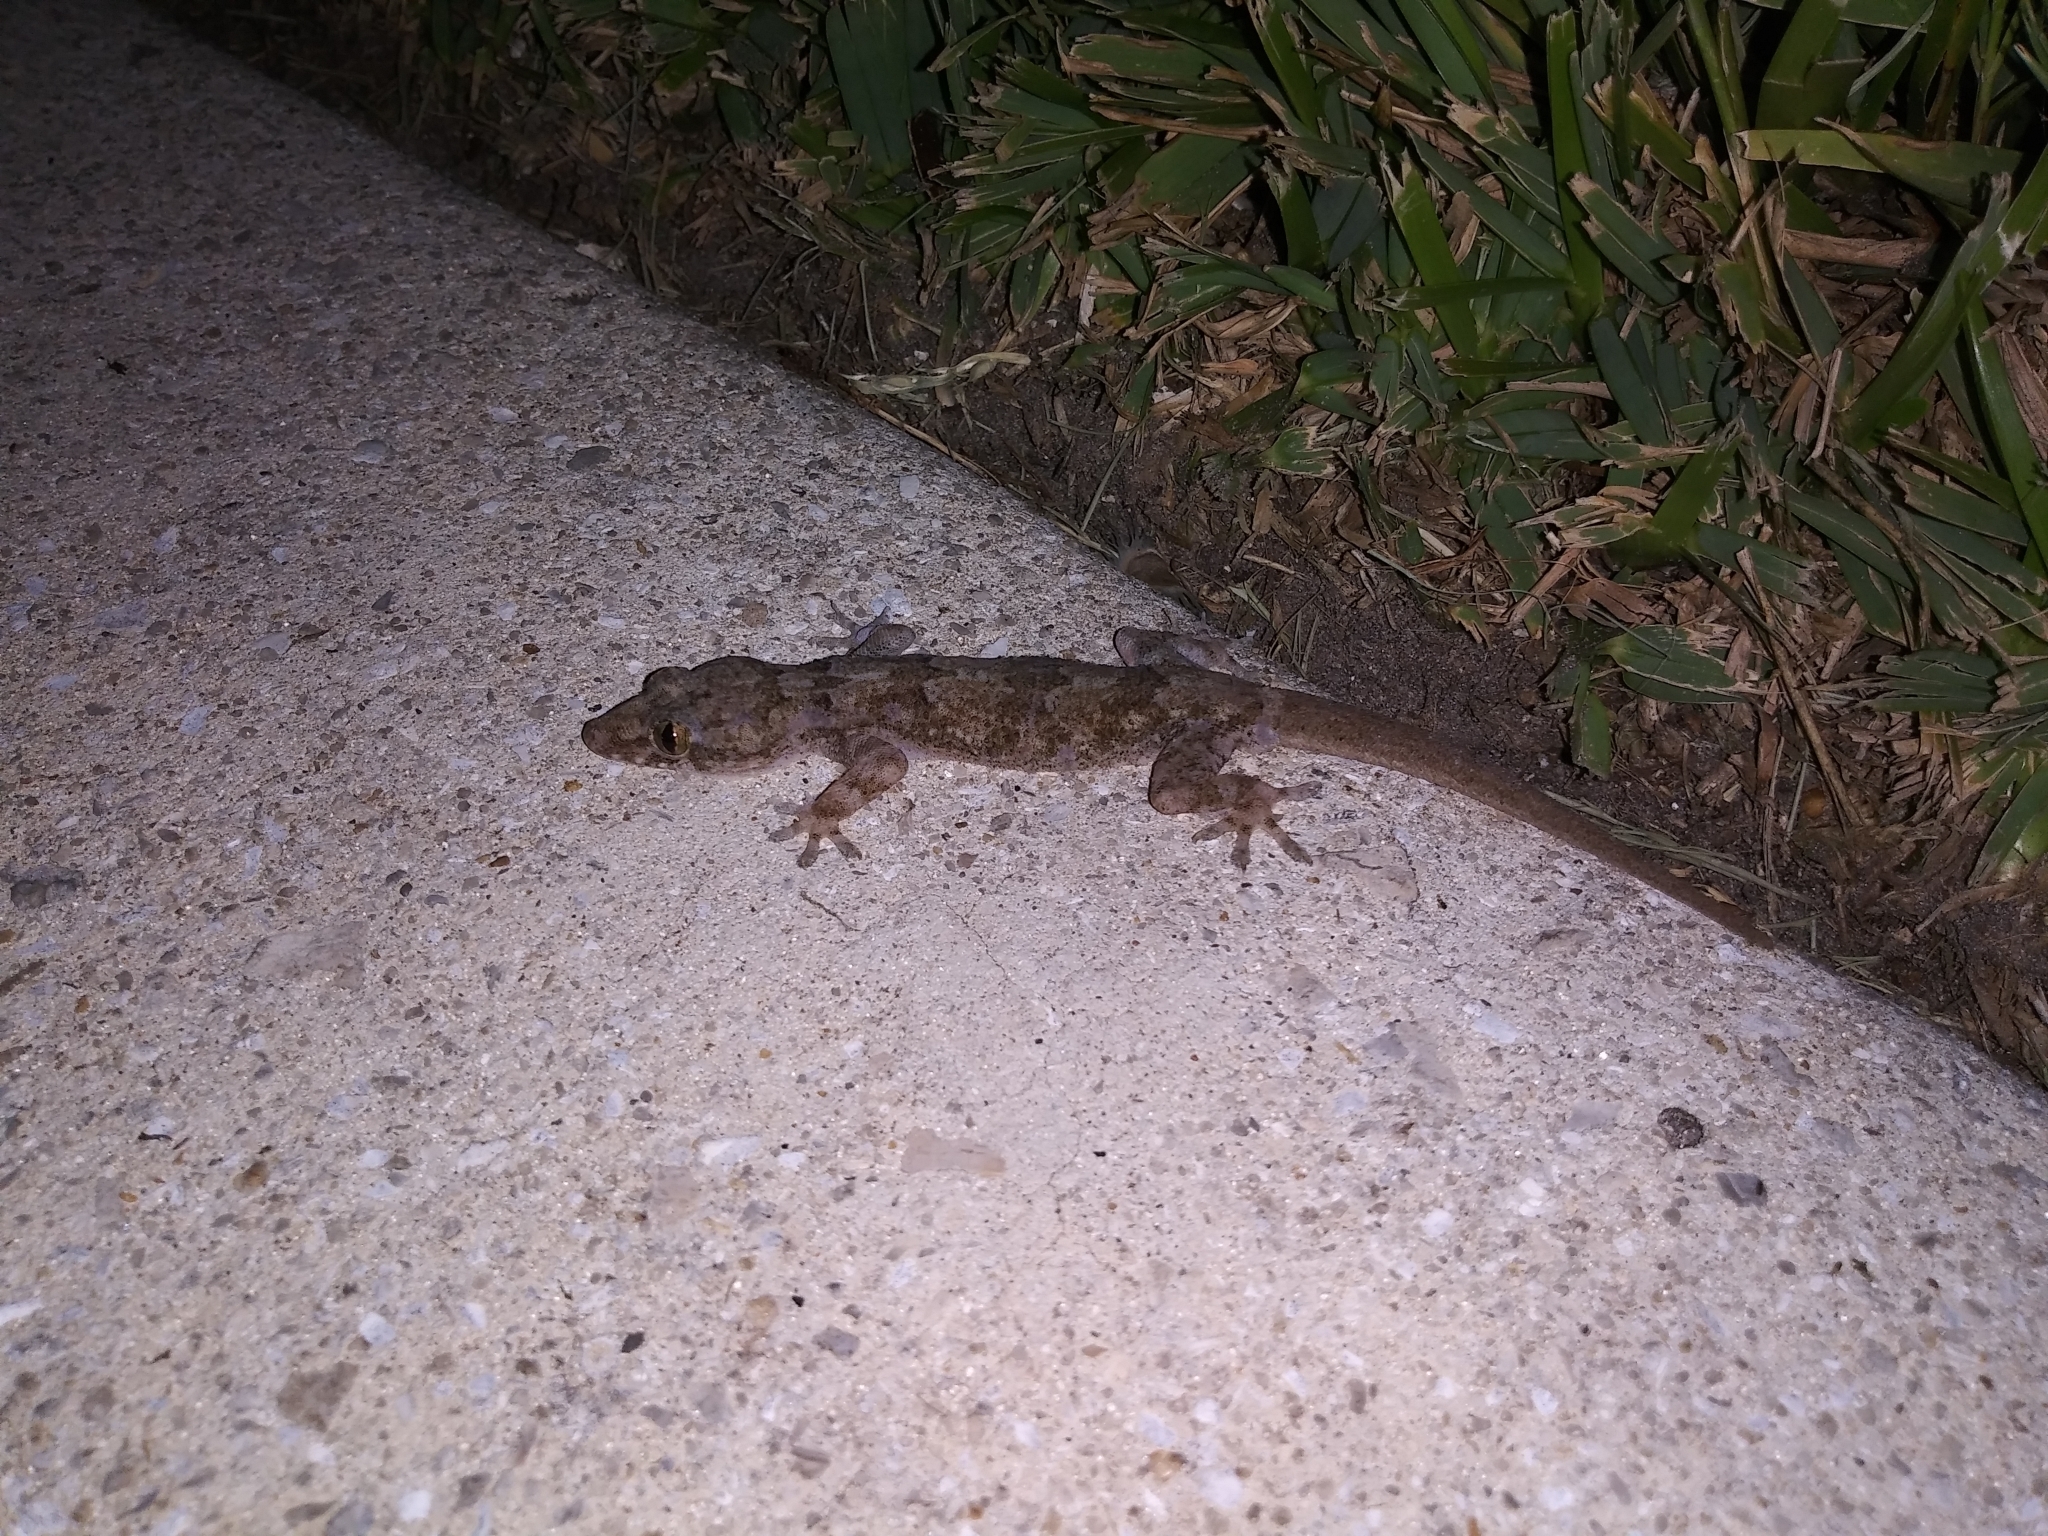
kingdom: Animalia
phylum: Chordata
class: Squamata
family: Gekkonidae
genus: Hemidactylus
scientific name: Hemidactylus mabouia
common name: House gecko
